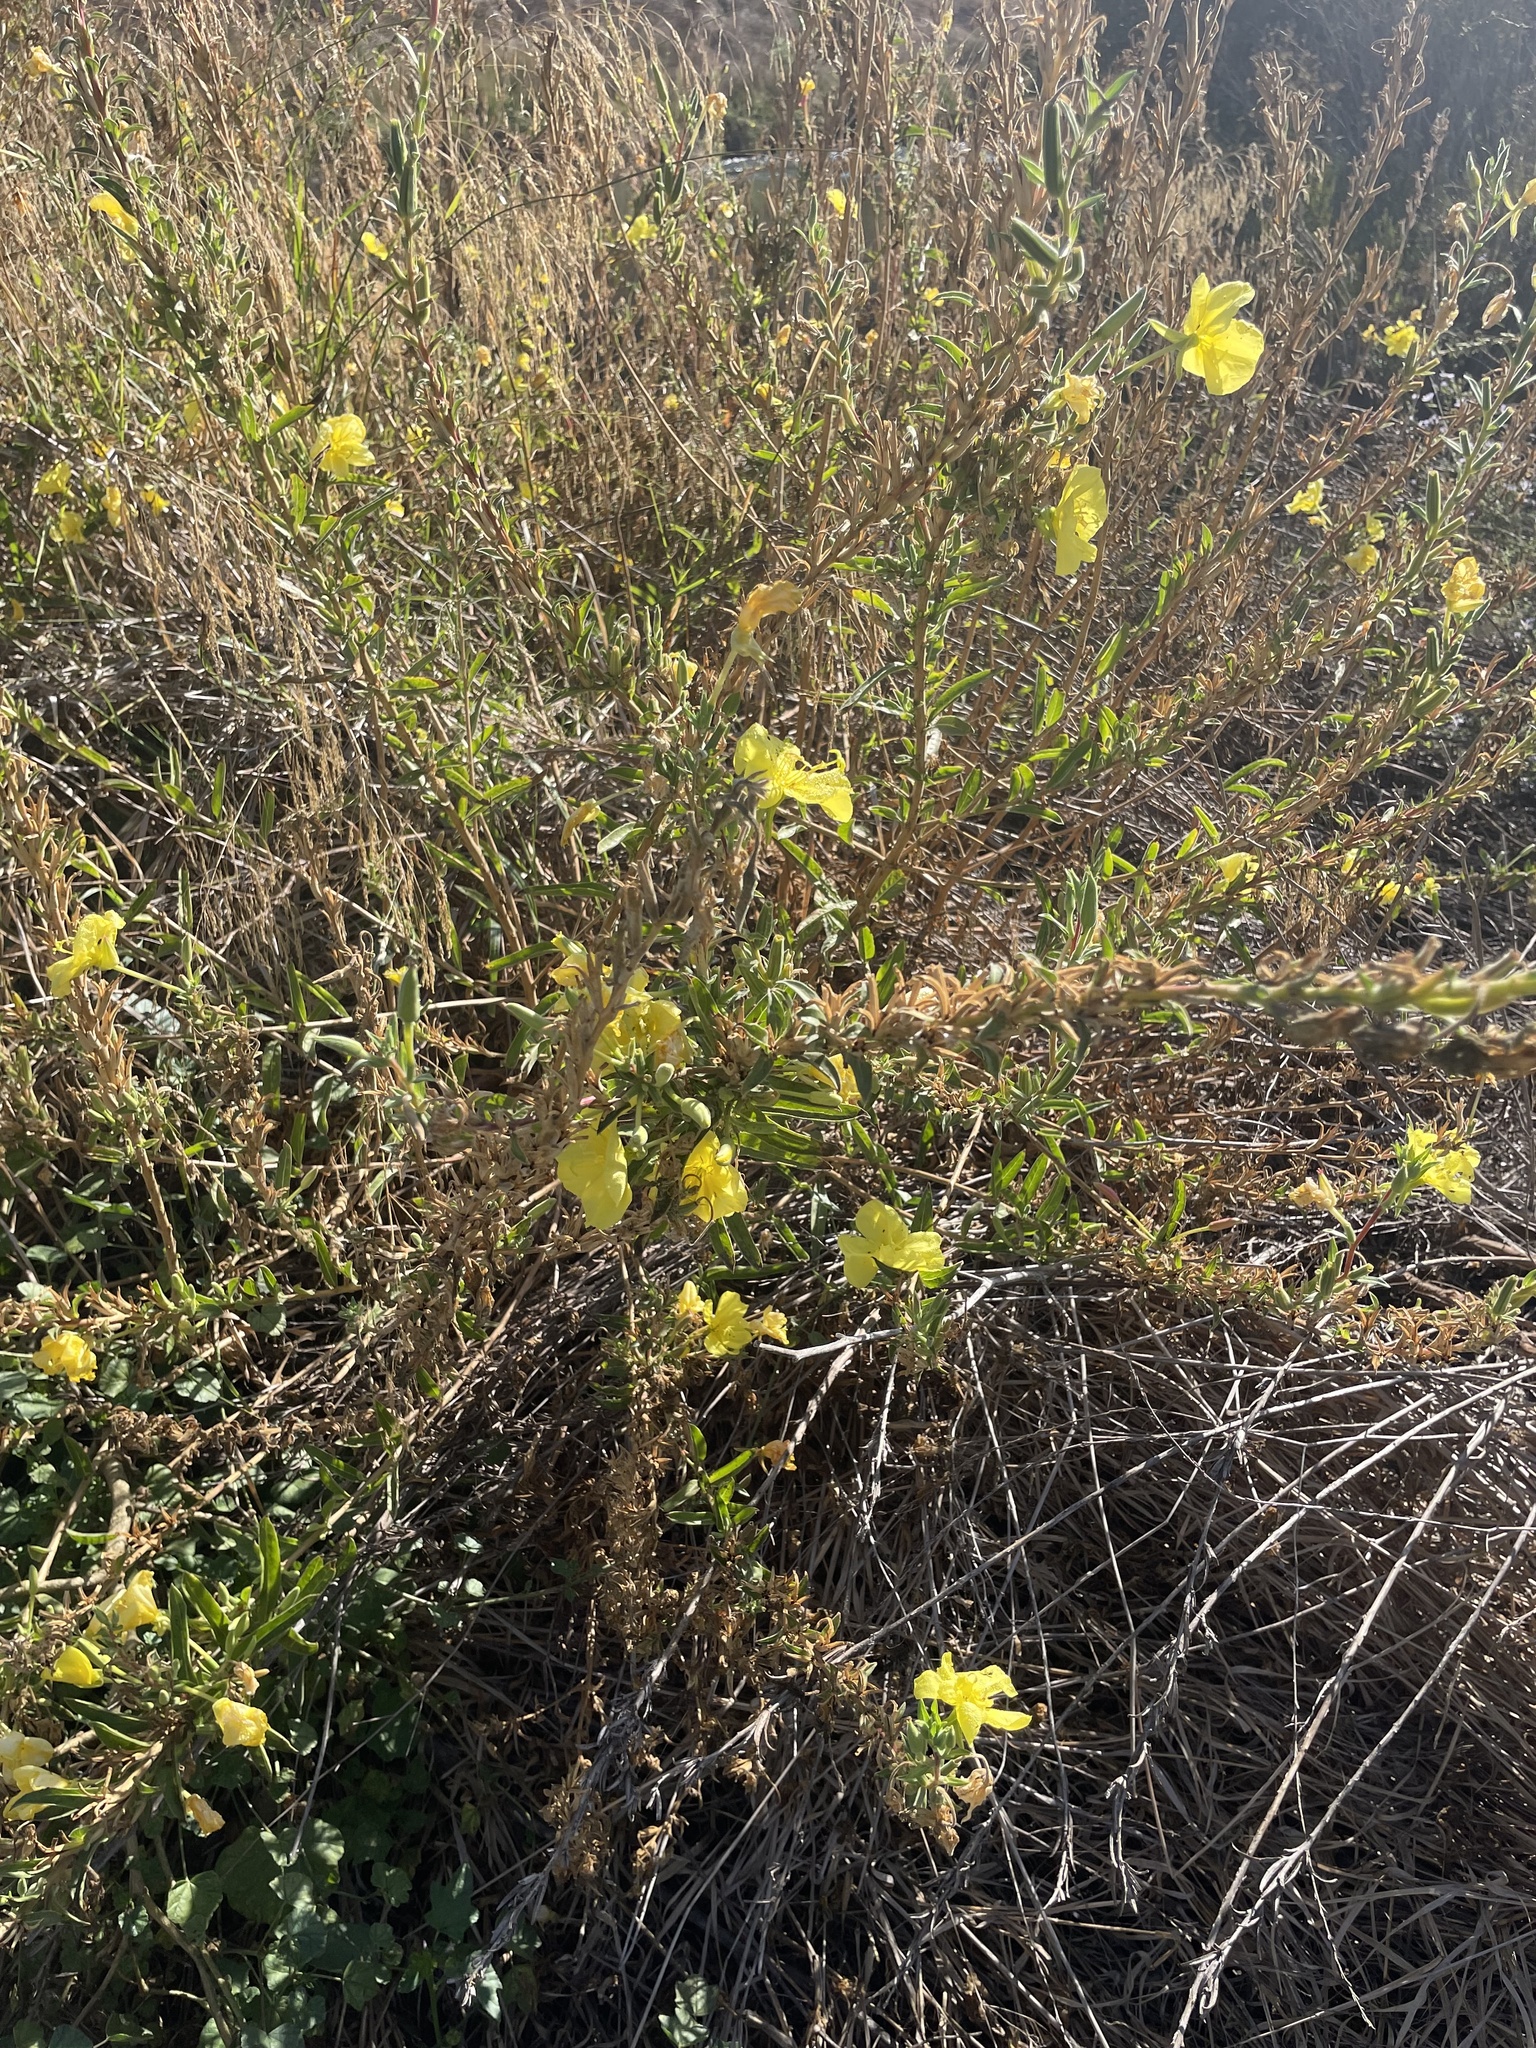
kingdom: Plantae
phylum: Tracheophyta
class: Magnoliopsida
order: Myrtales
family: Onagraceae
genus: Oenothera
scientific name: Oenothera elata
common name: Hooker's evening-primrose
